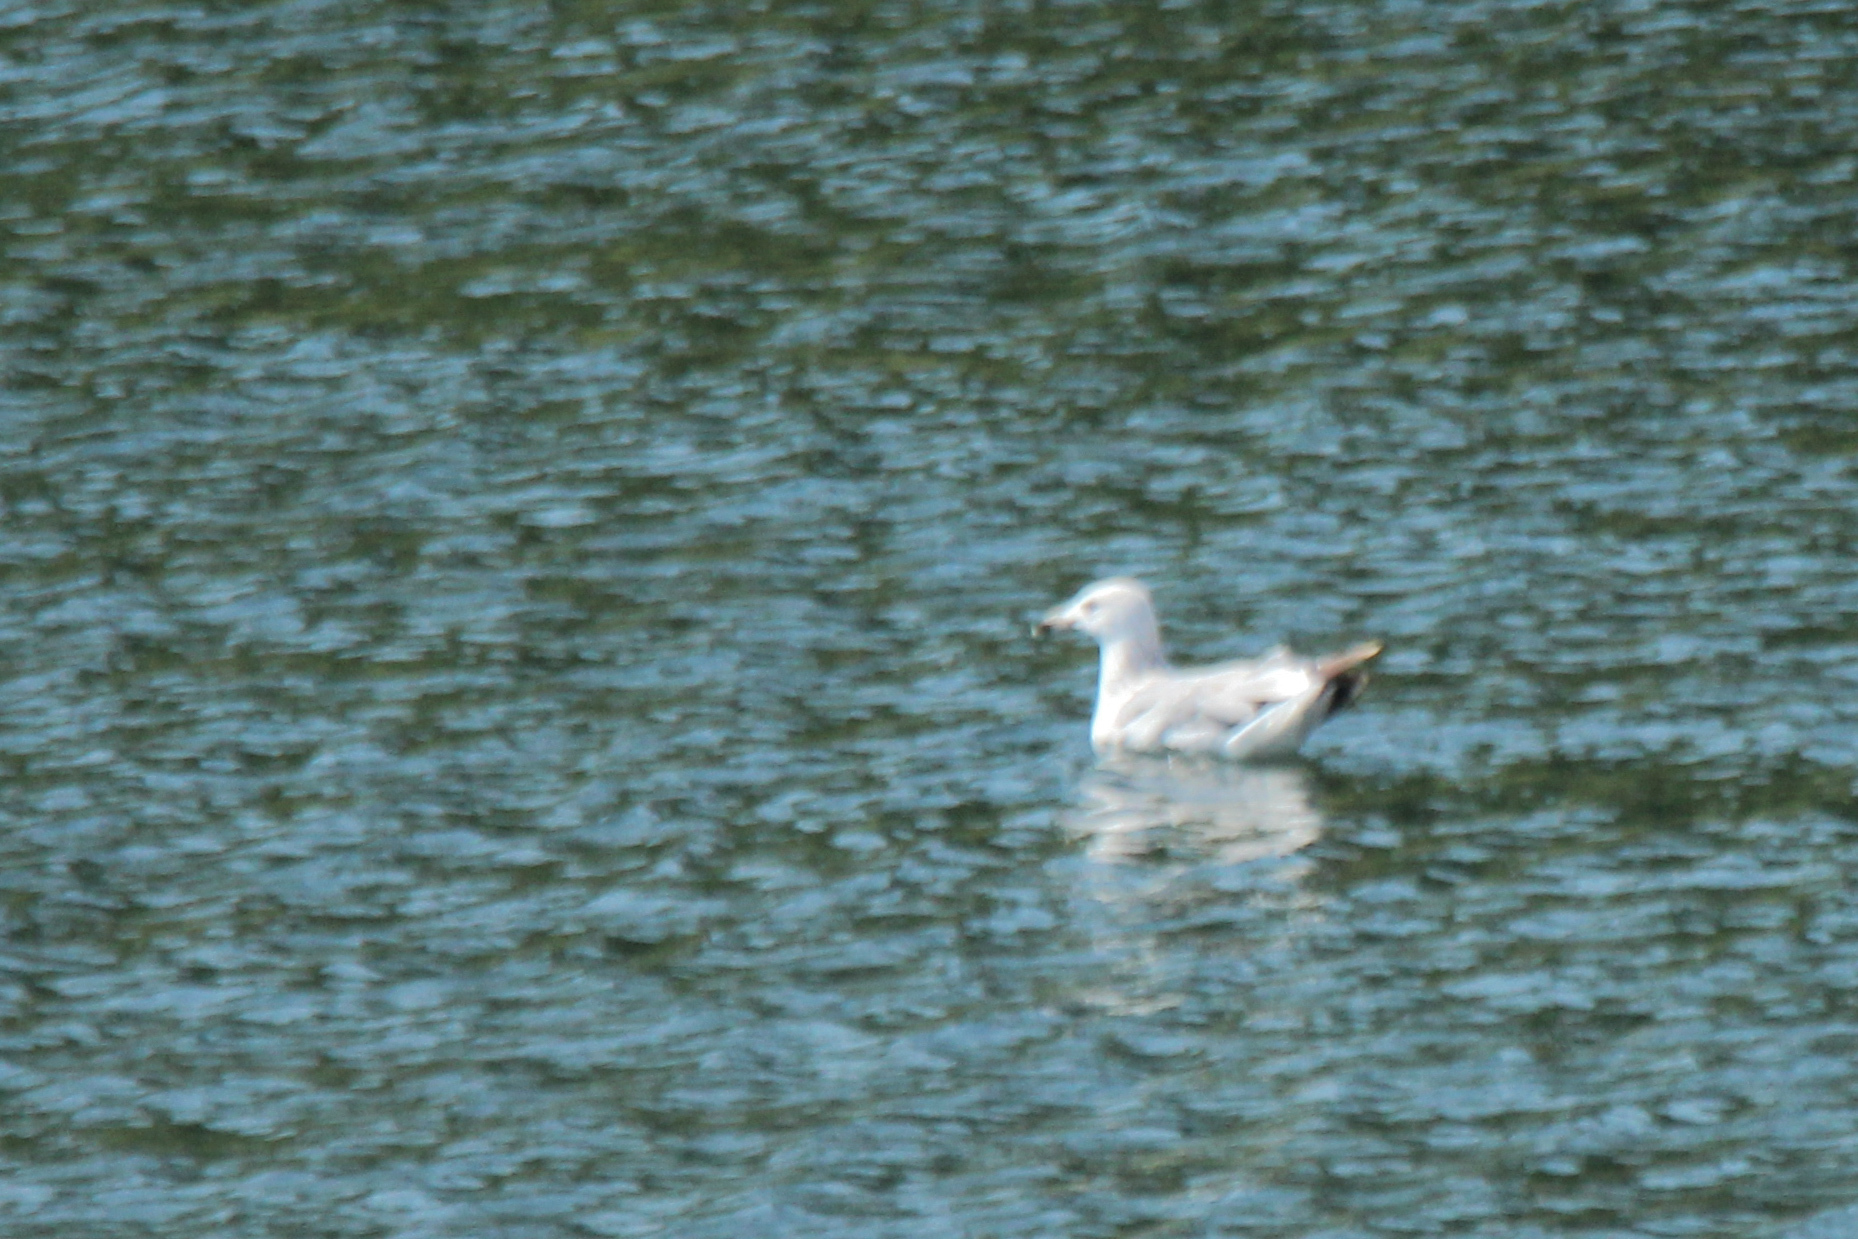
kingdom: Animalia
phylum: Chordata
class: Aves
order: Charadriiformes
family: Laridae
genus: Larus
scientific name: Larus vegae
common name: Vega gull
